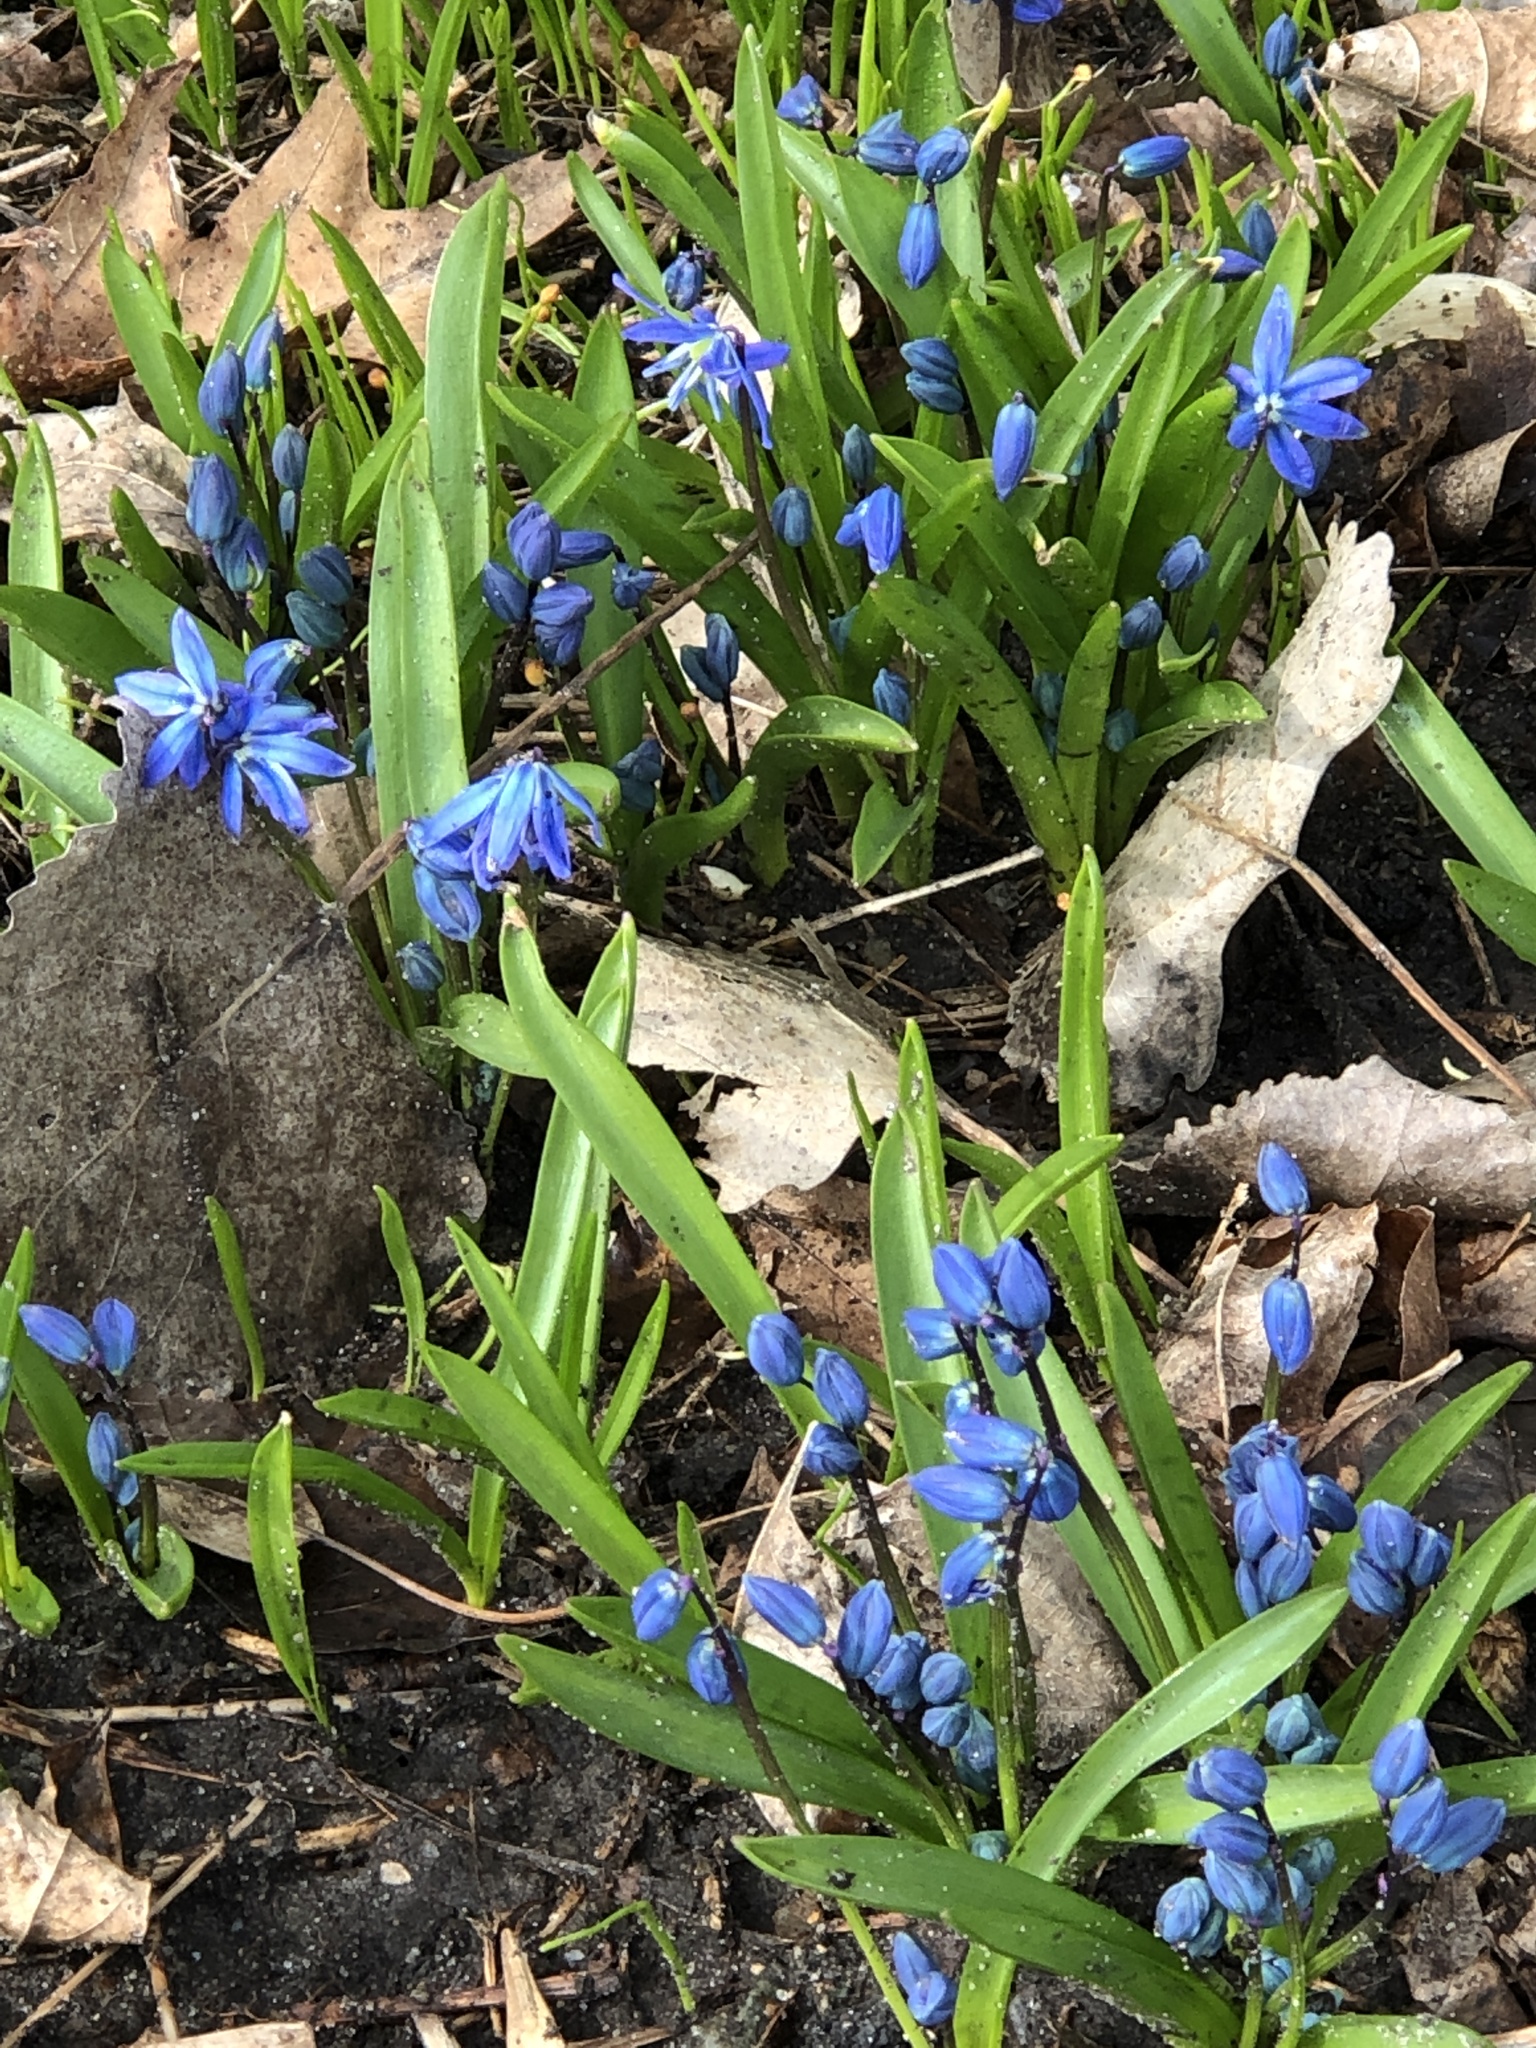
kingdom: Plantae
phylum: Tracheophyta
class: Liliopsida
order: Asparagales
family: Asparagaceae
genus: Scilla
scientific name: Scilla siberica
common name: Siberian squill
